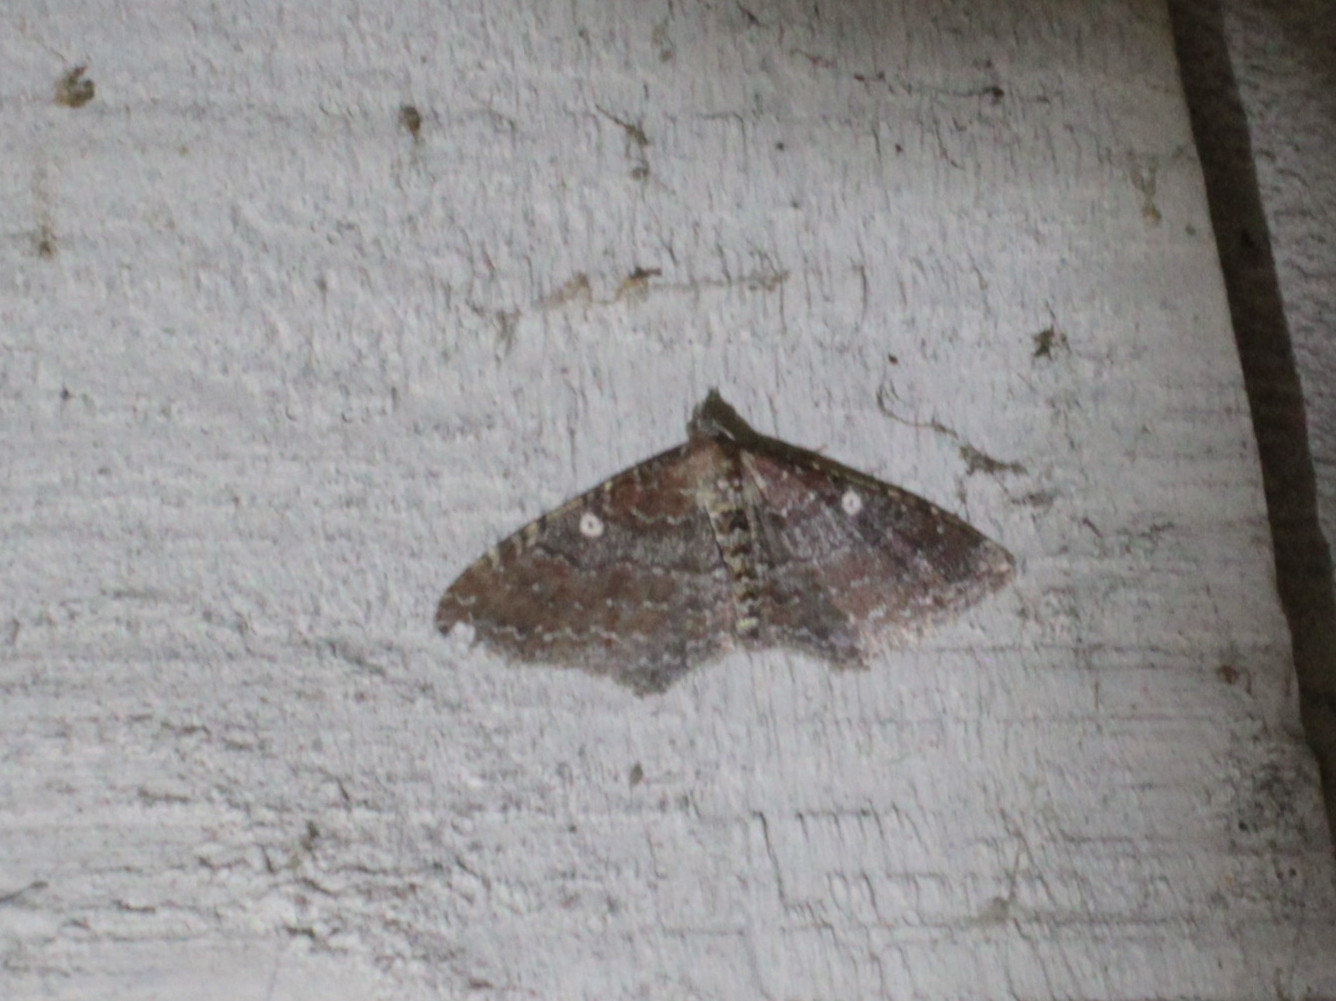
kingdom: Animalia
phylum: Arthropoda
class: Insecta
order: Lepidoptera
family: Geometridae
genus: Orthonama
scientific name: Orthonama obstipata
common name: The gem
